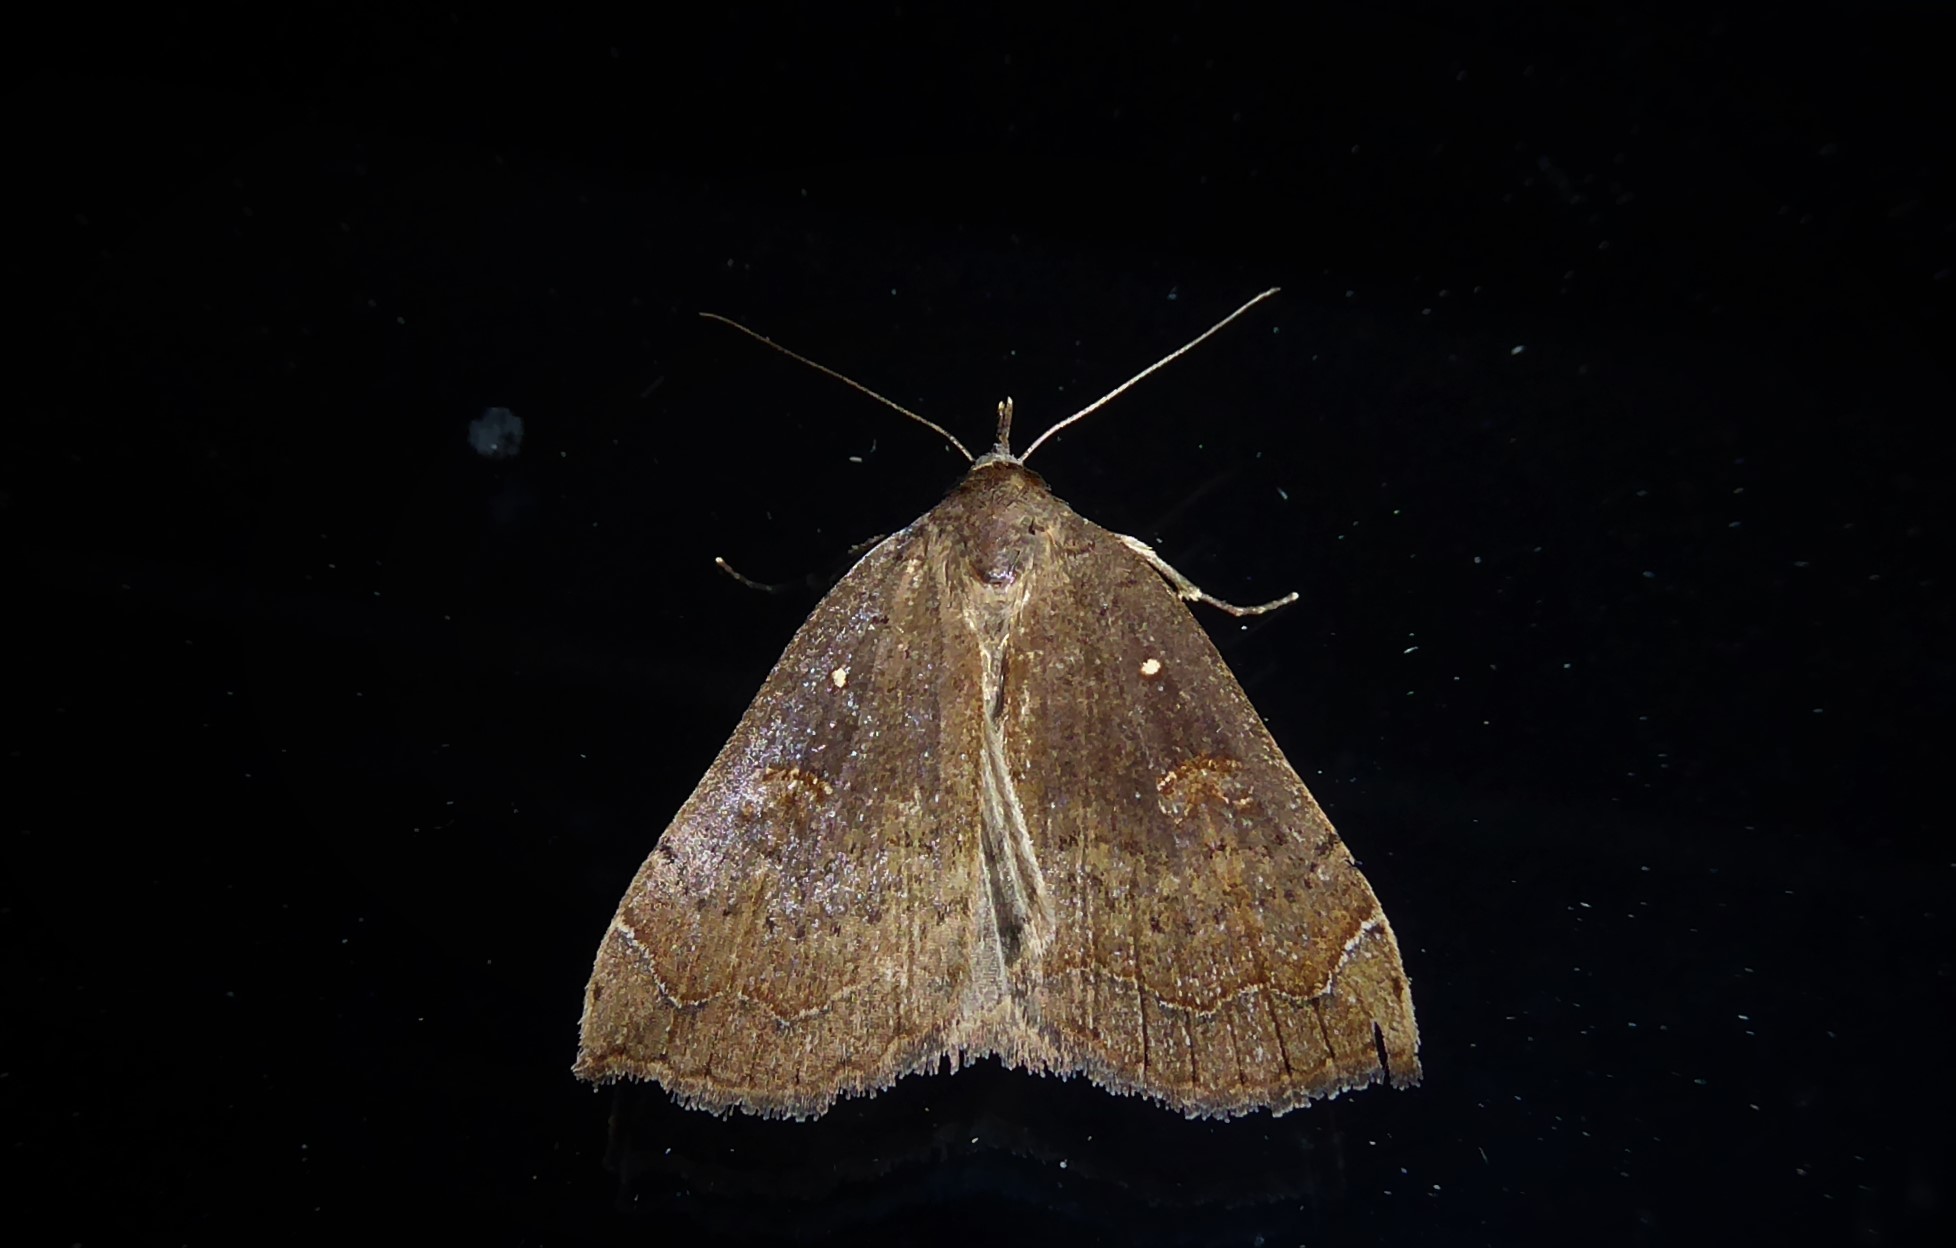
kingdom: Animalia
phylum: Arthropoda
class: Insecta
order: Lepidoptera
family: Erebidae
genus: Rhapsa
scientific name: Rhapsa scotosialis
